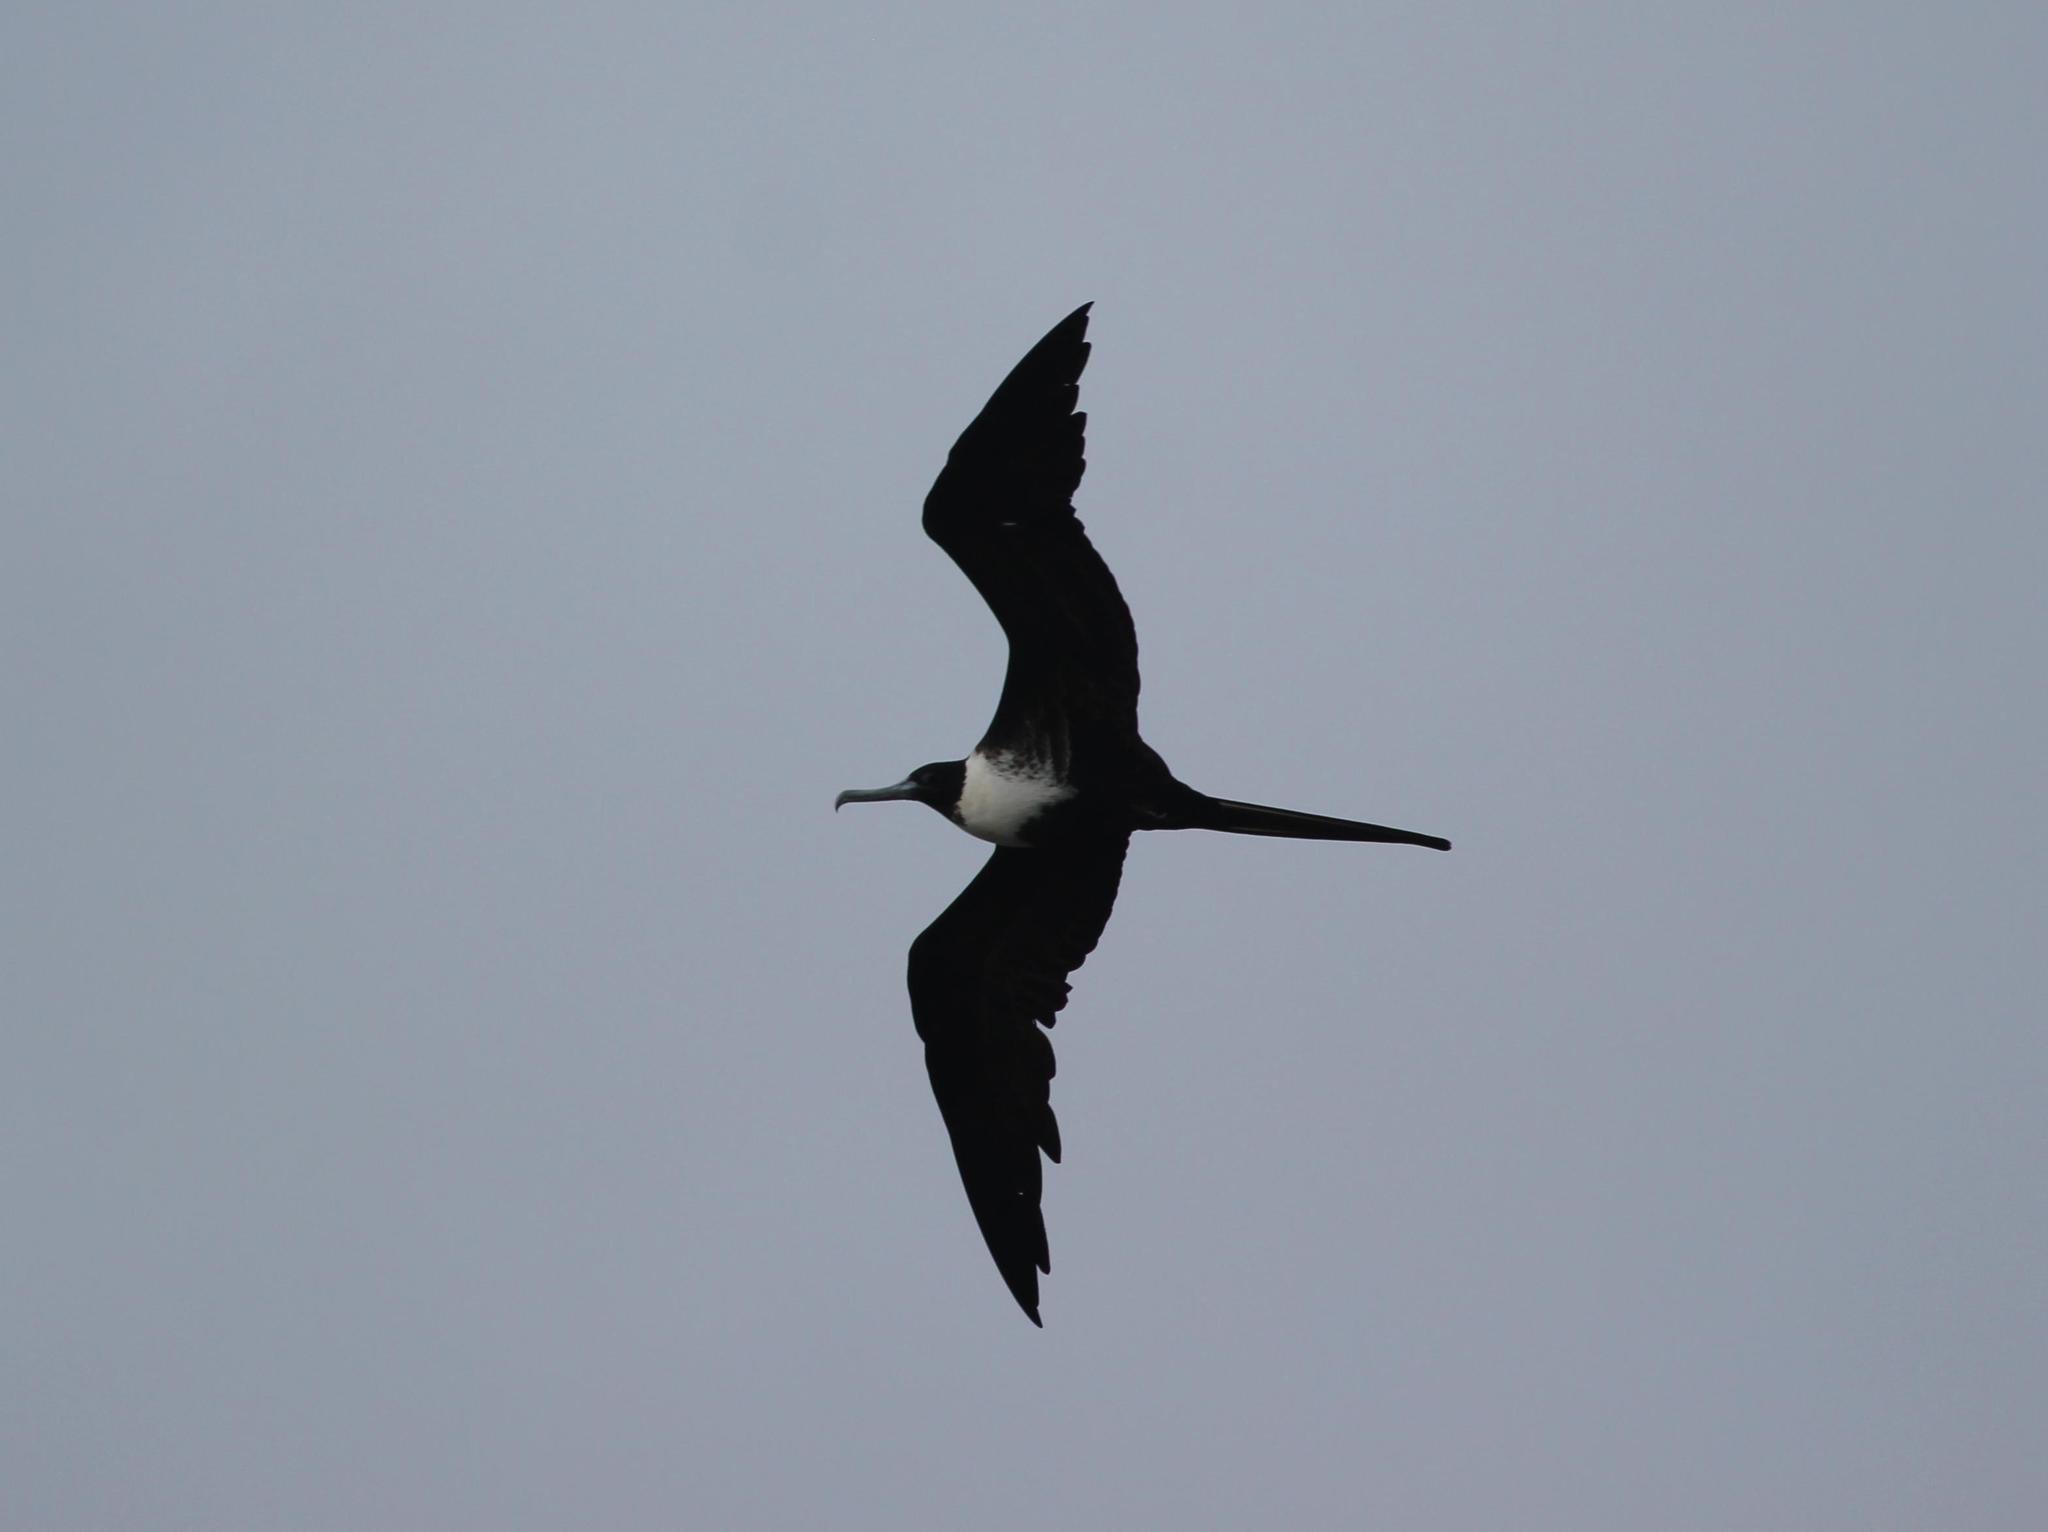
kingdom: Animalia
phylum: Chordata
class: Aves
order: Suliformes
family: Fregatidae
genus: Fregata
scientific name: Fregata magnificens
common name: Magnificent frigatebird
